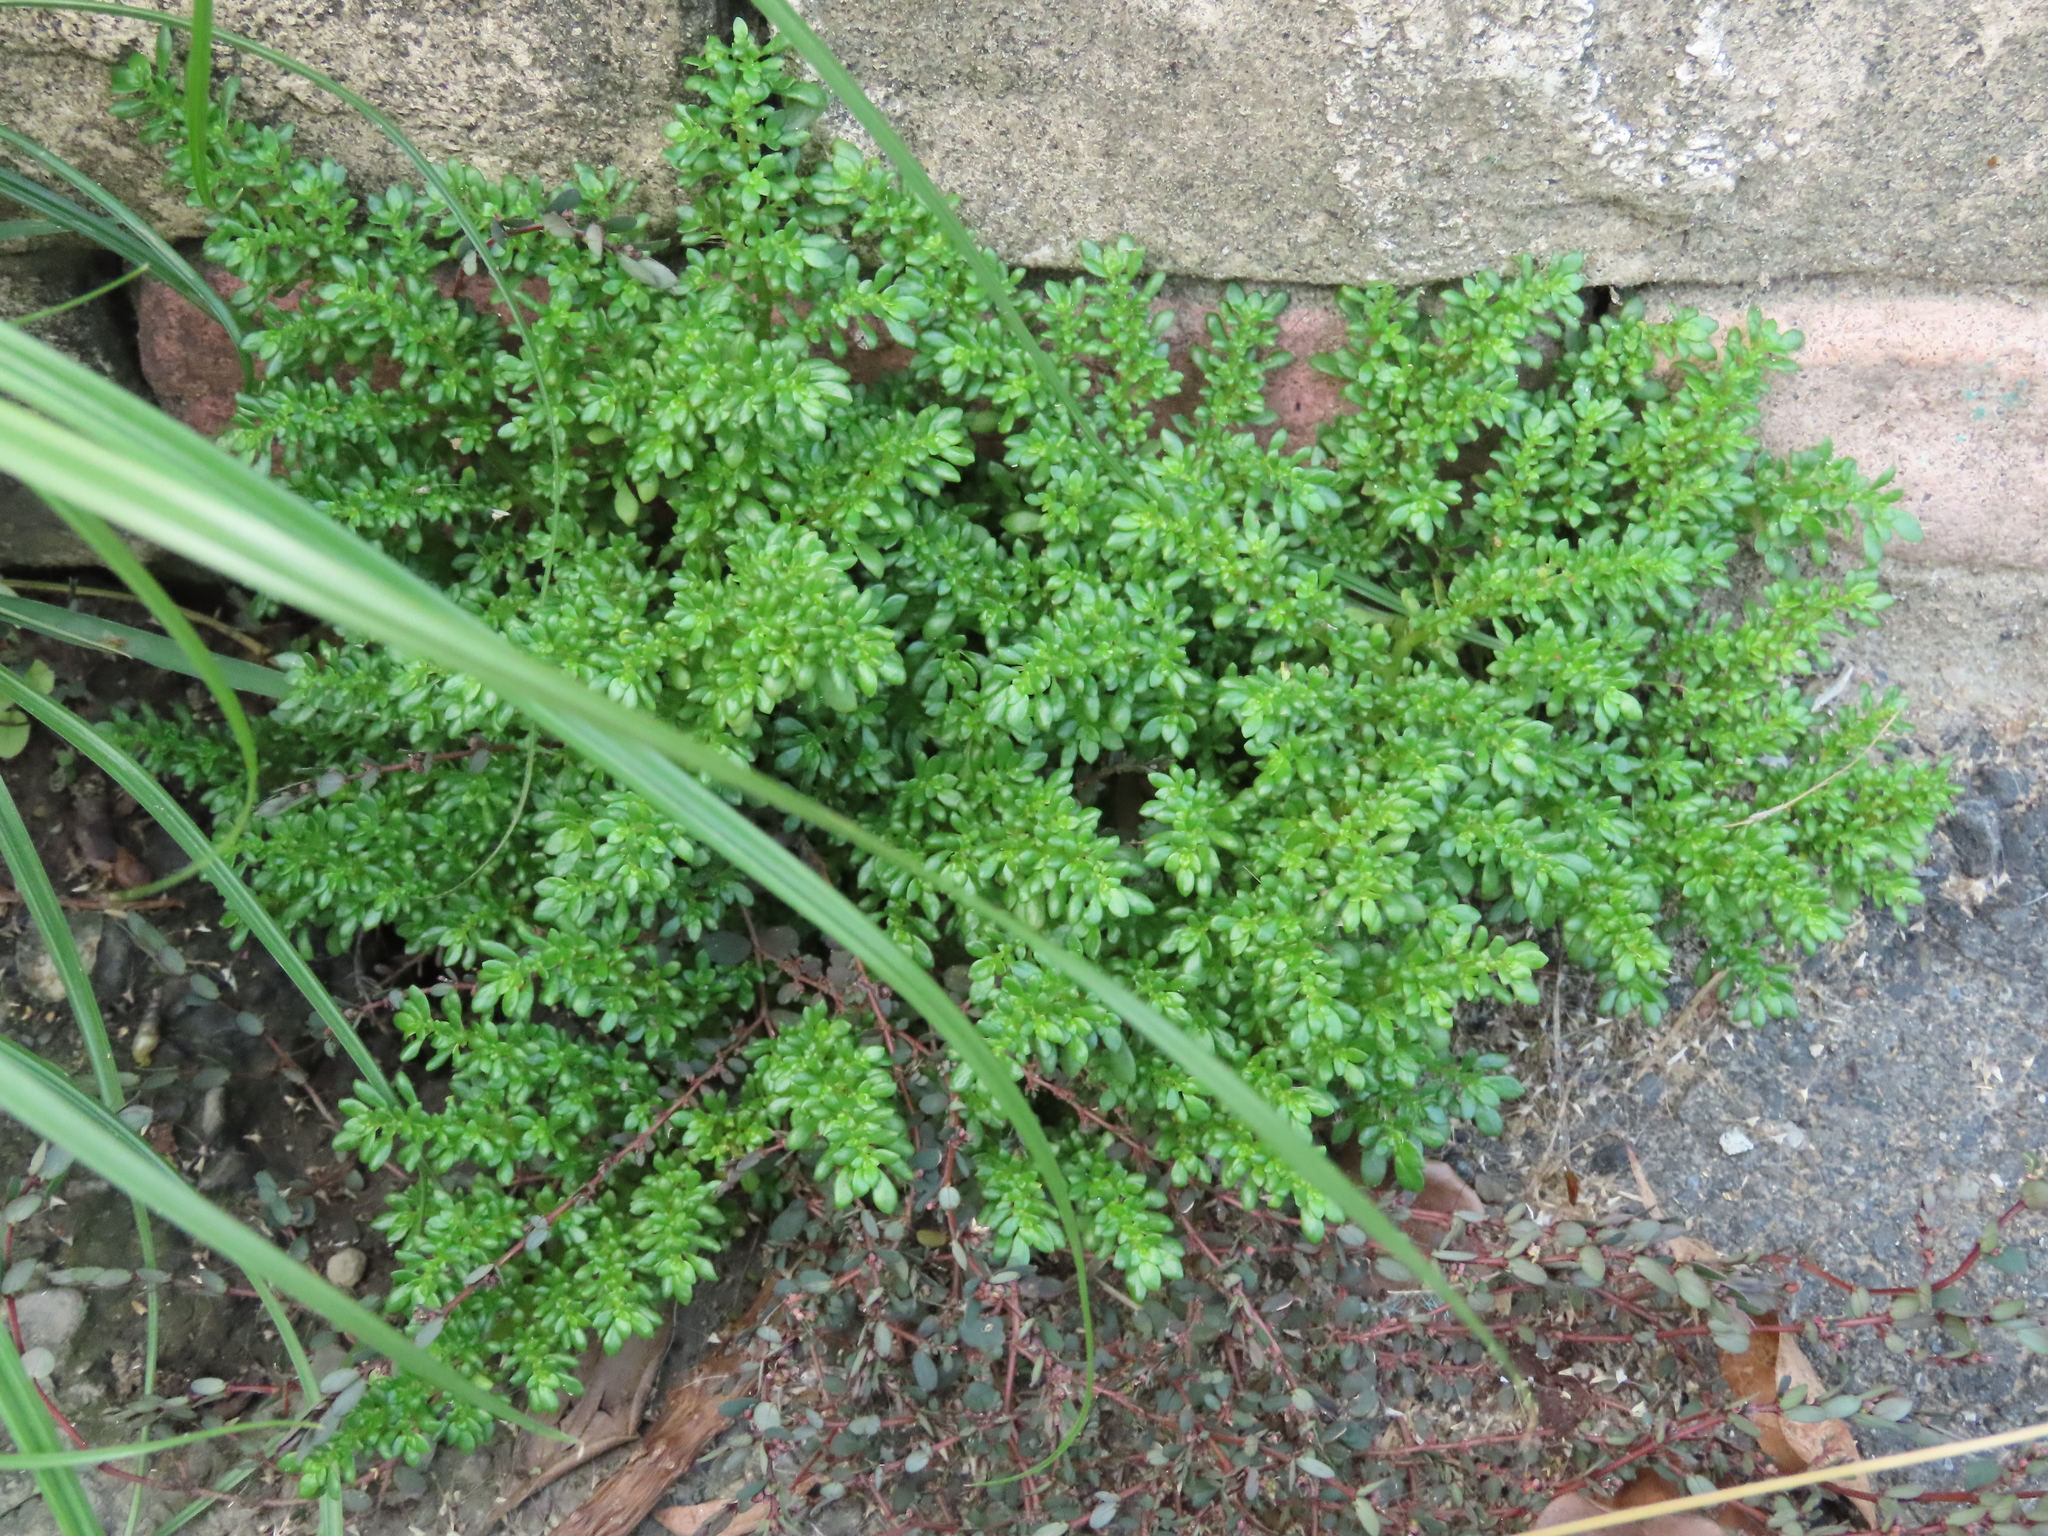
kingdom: Plantae
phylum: Tracheophyta
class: Magnoliopsida
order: Rosales
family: Urticaceae
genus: Pilea
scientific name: Pilea microphylla
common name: Artillery-plant
